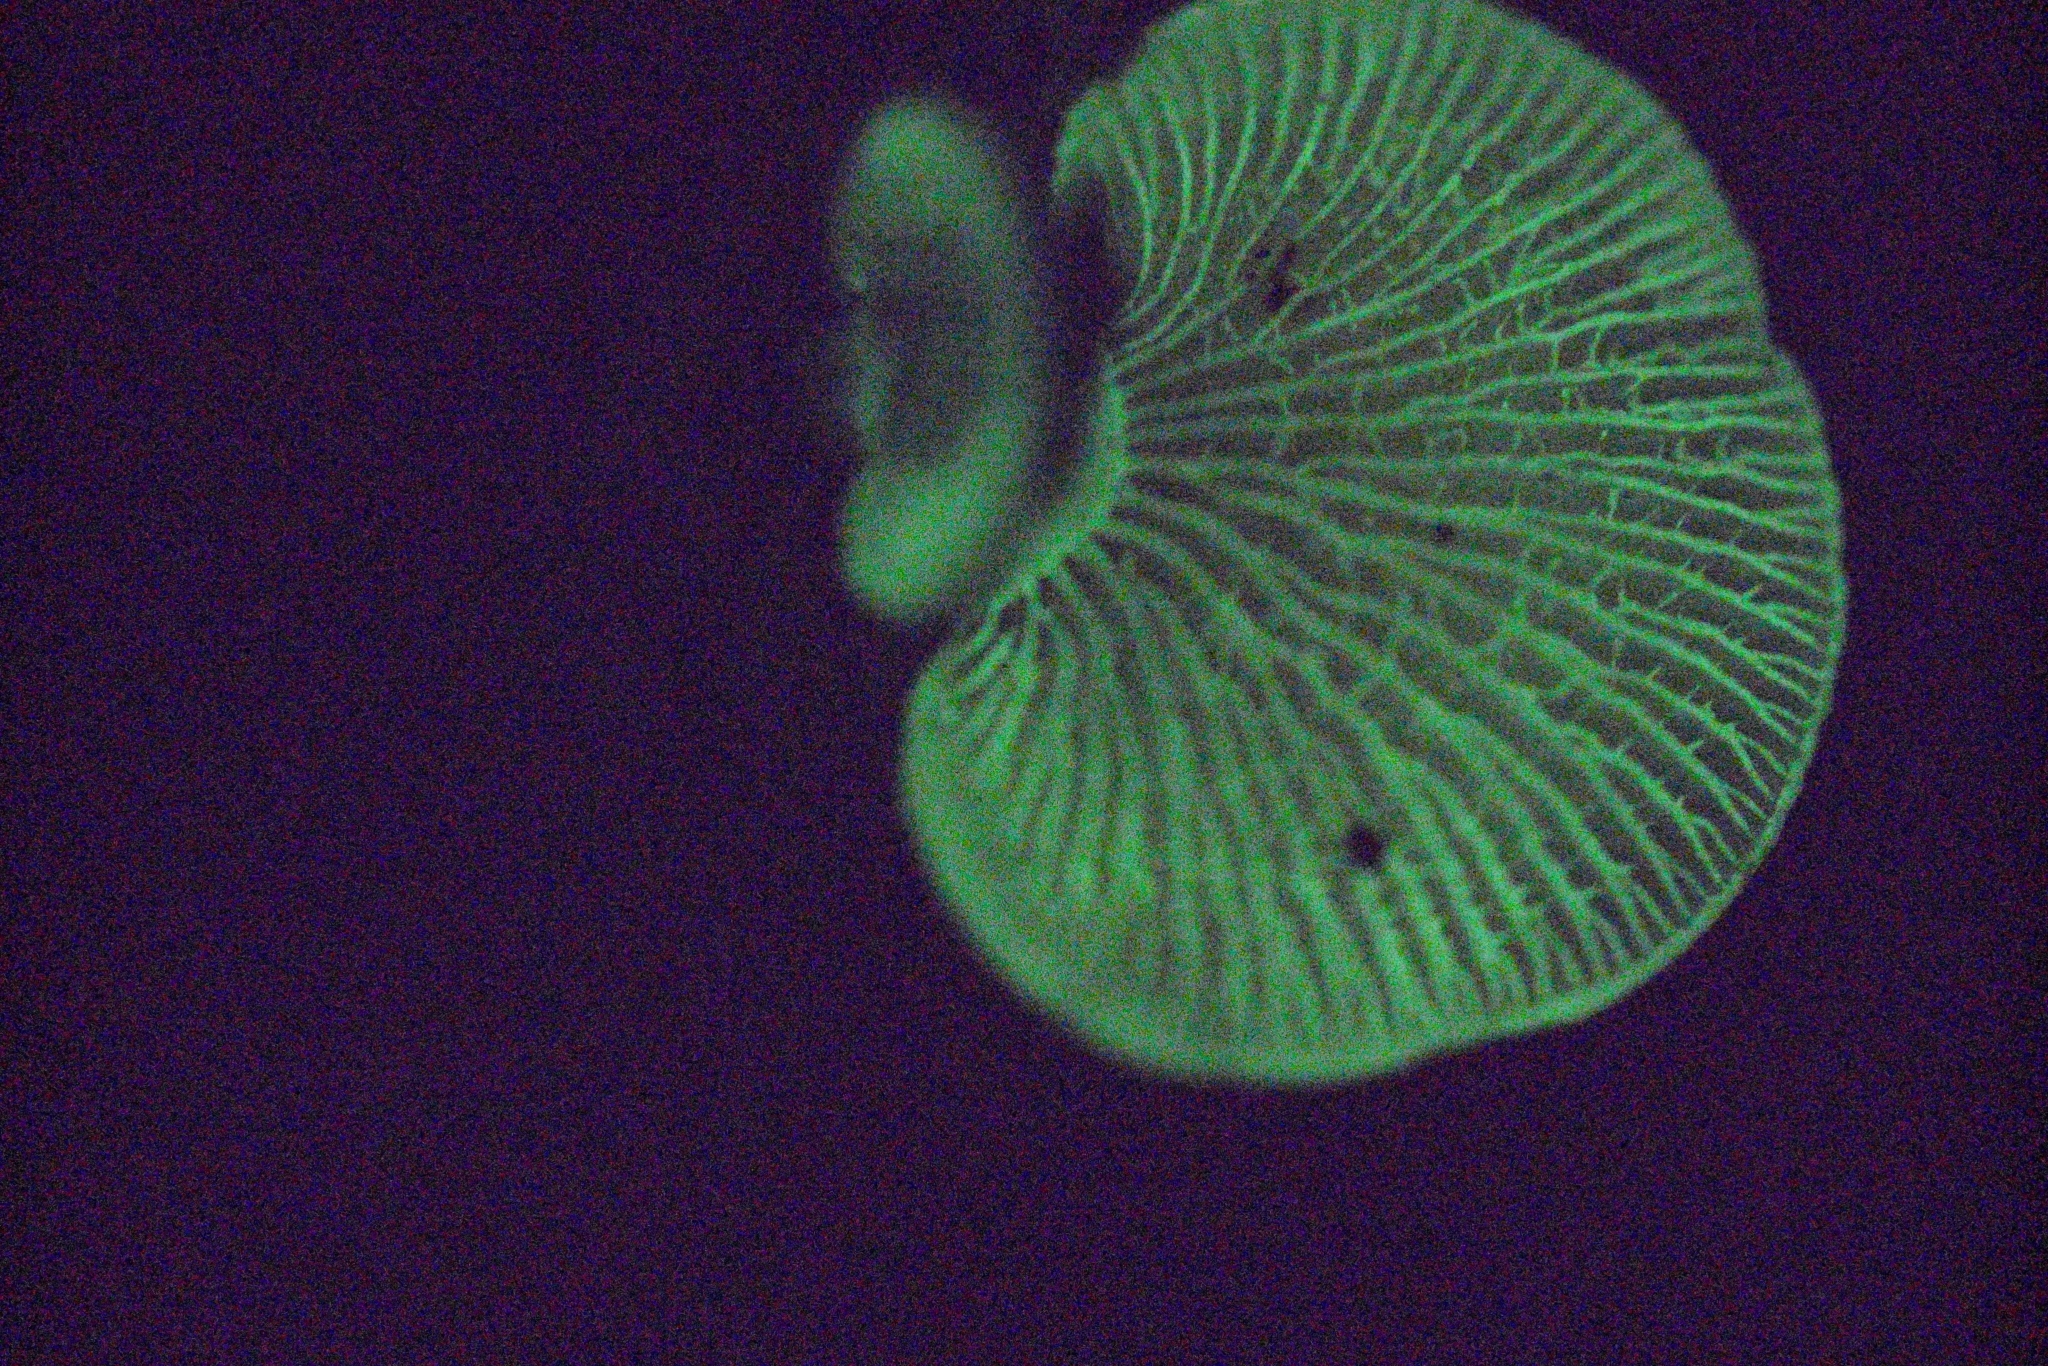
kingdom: Fungi
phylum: Basidiomycota
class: Agaricomycetes
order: Agaricales
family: Mycenaceae
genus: Panellus
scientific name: Panellus stipticus
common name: Bitter oysterling
